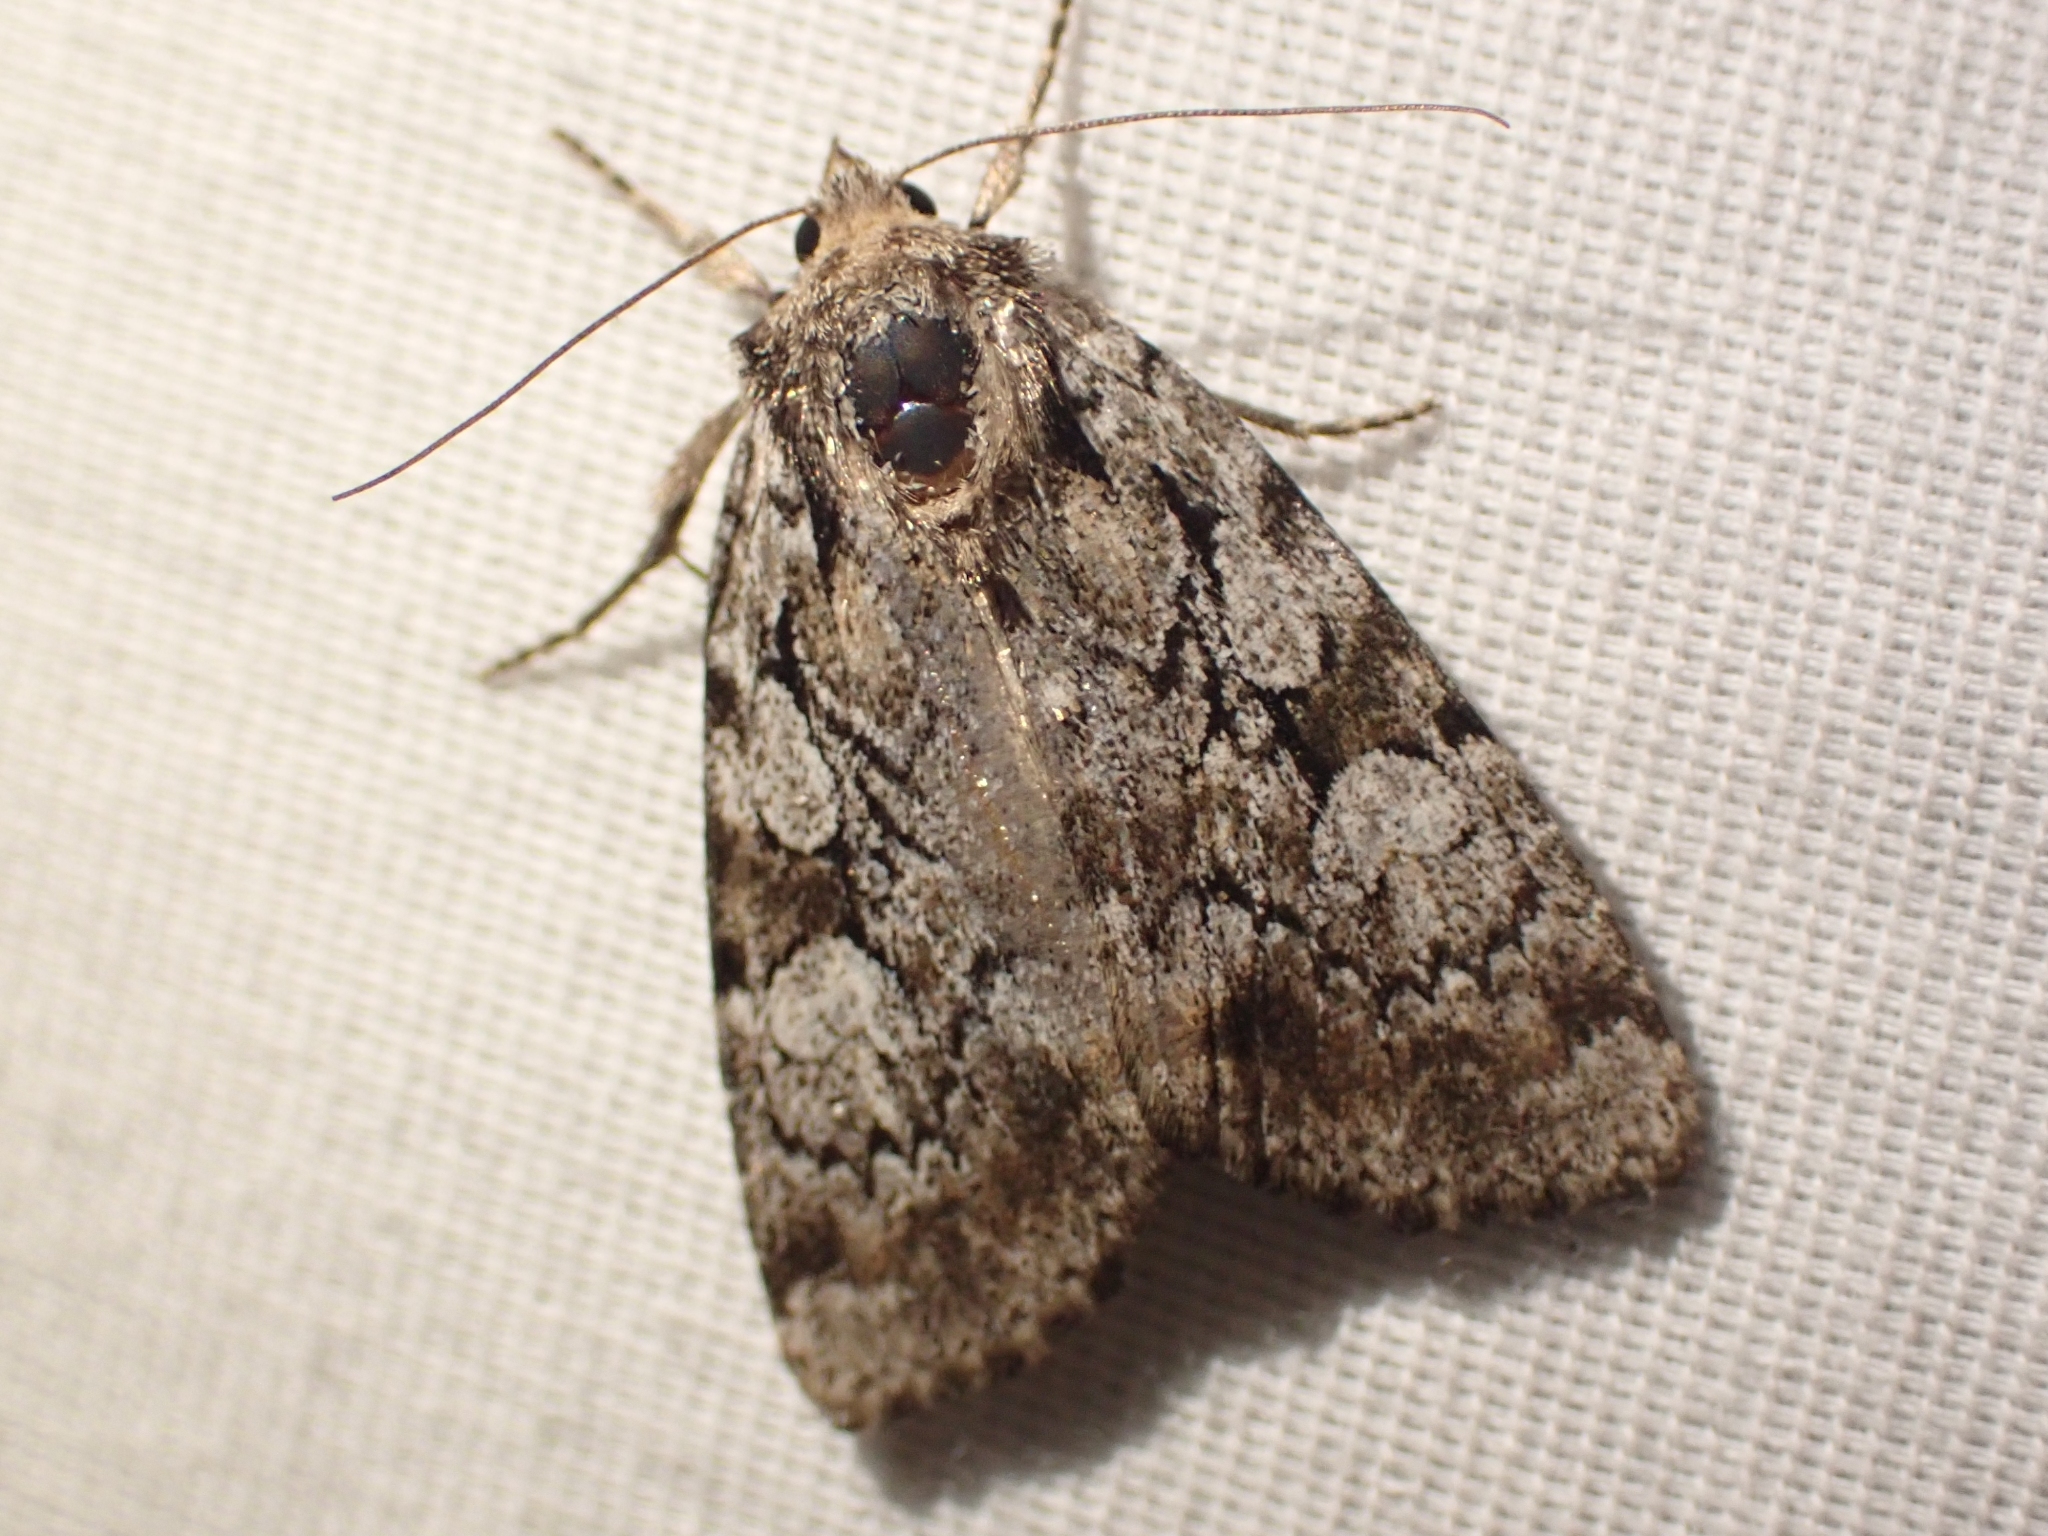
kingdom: Animalia
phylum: Arthropoda
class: Insecta
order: Lepidoptera
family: Noctuidae
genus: Aplectoides
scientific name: Aplectoides condita
